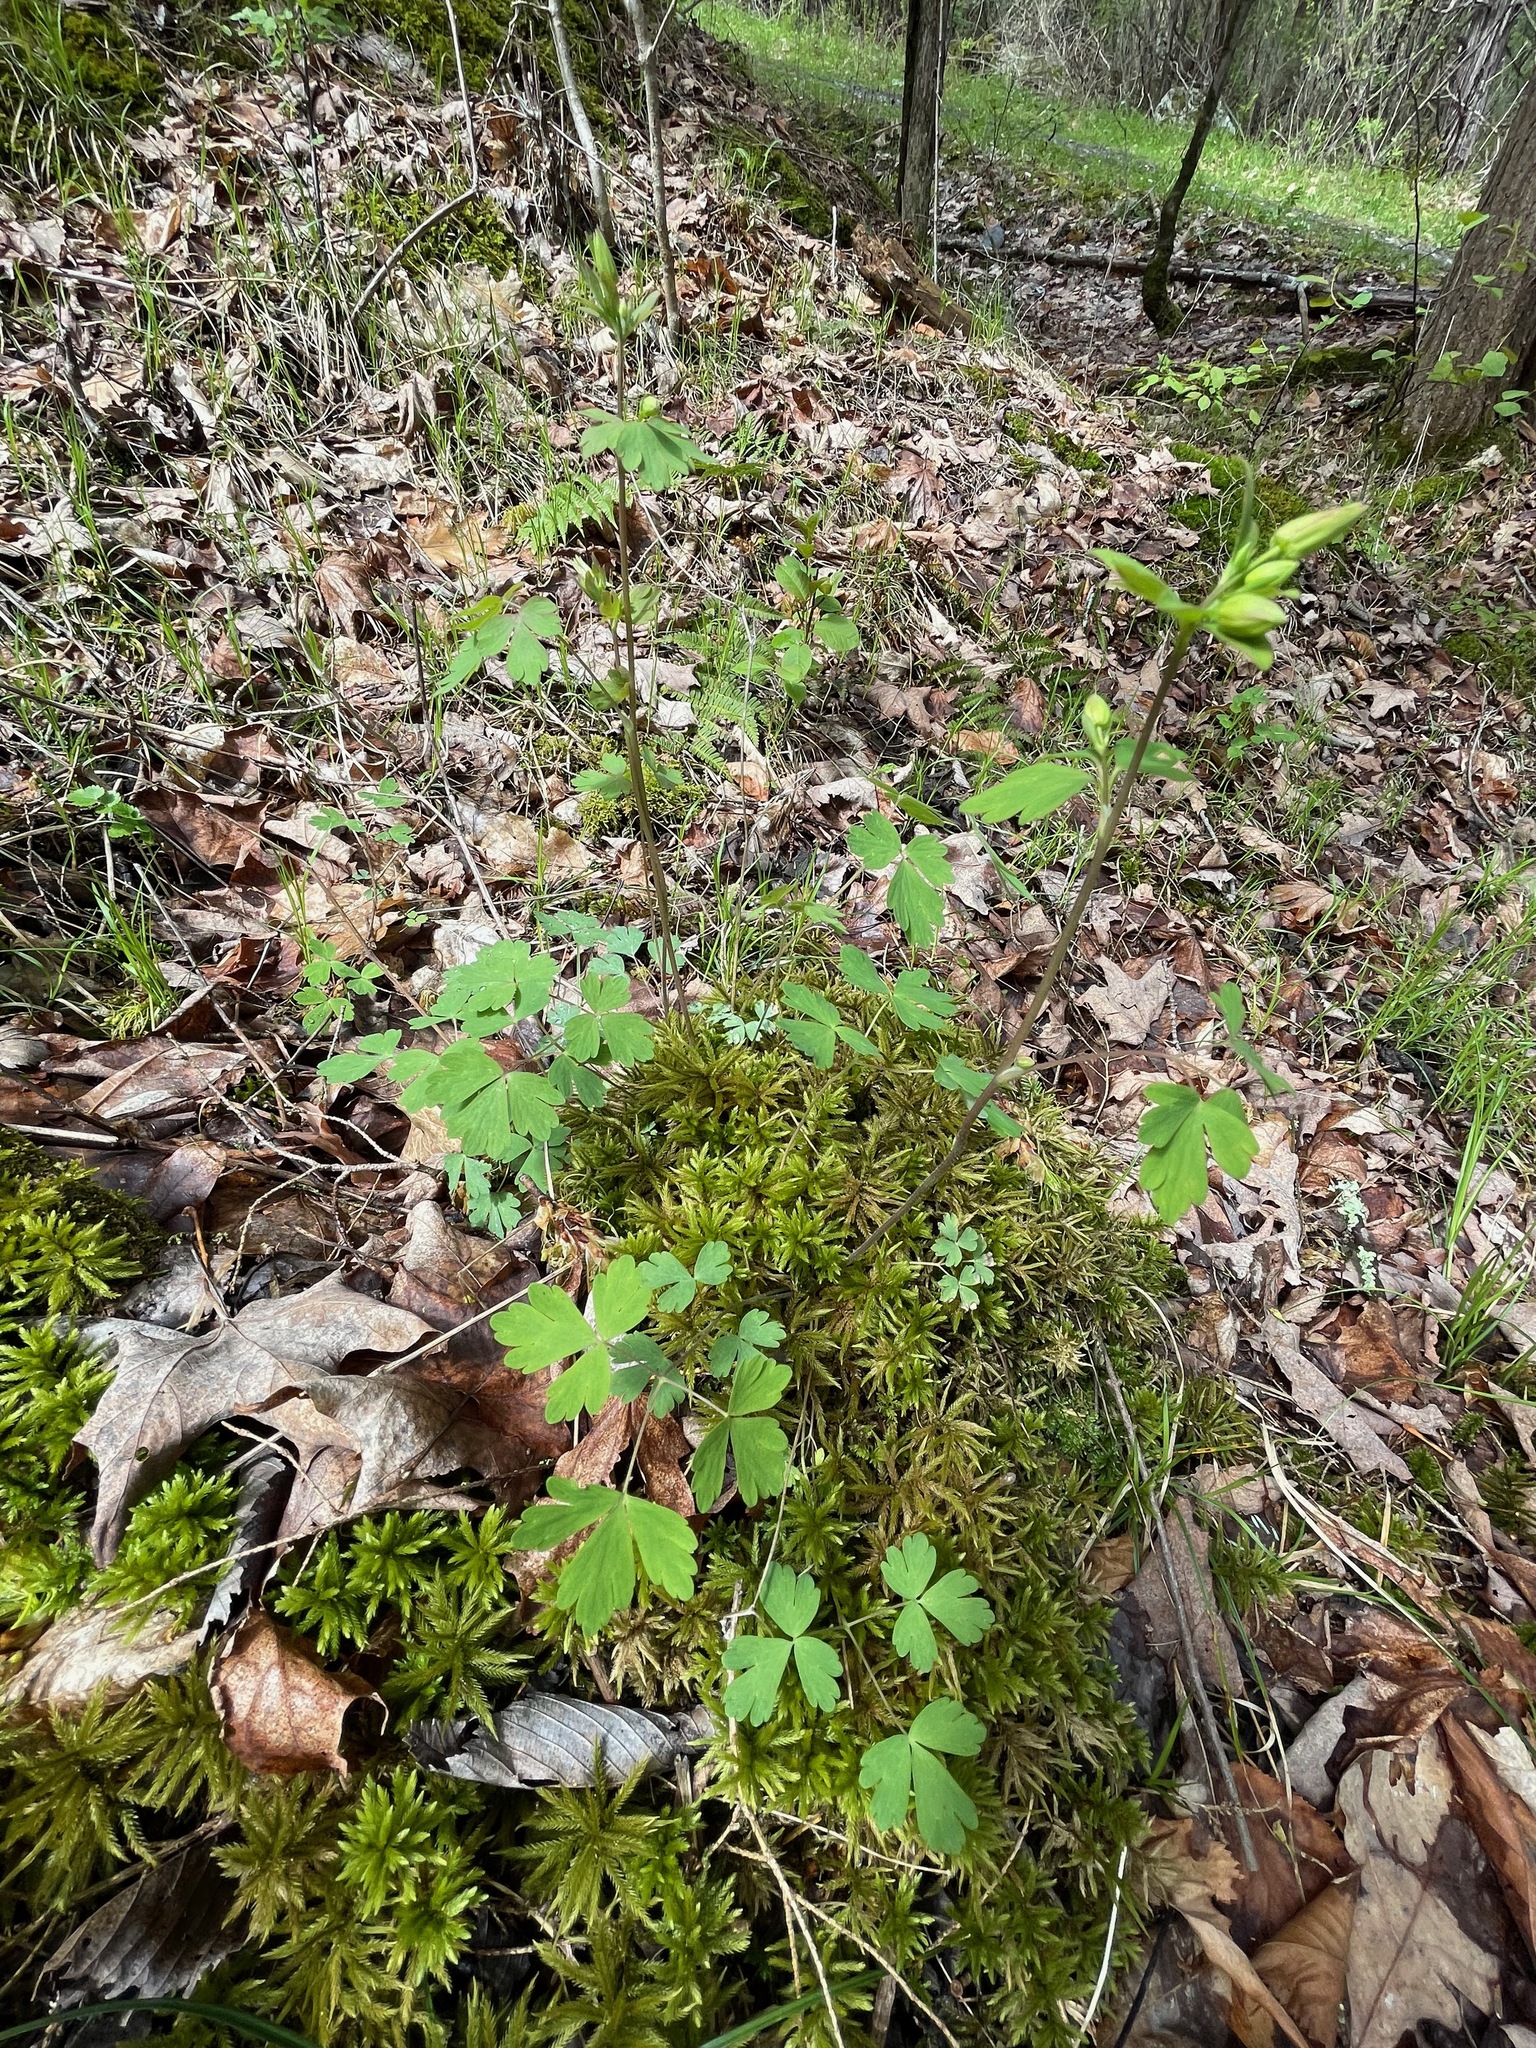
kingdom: Plantae
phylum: Tracheophyta
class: Magnoliopsida
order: Ranunculales
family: Ranunculaceae
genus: Aquilegia
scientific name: Aquilegia canadensis
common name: American columbine
